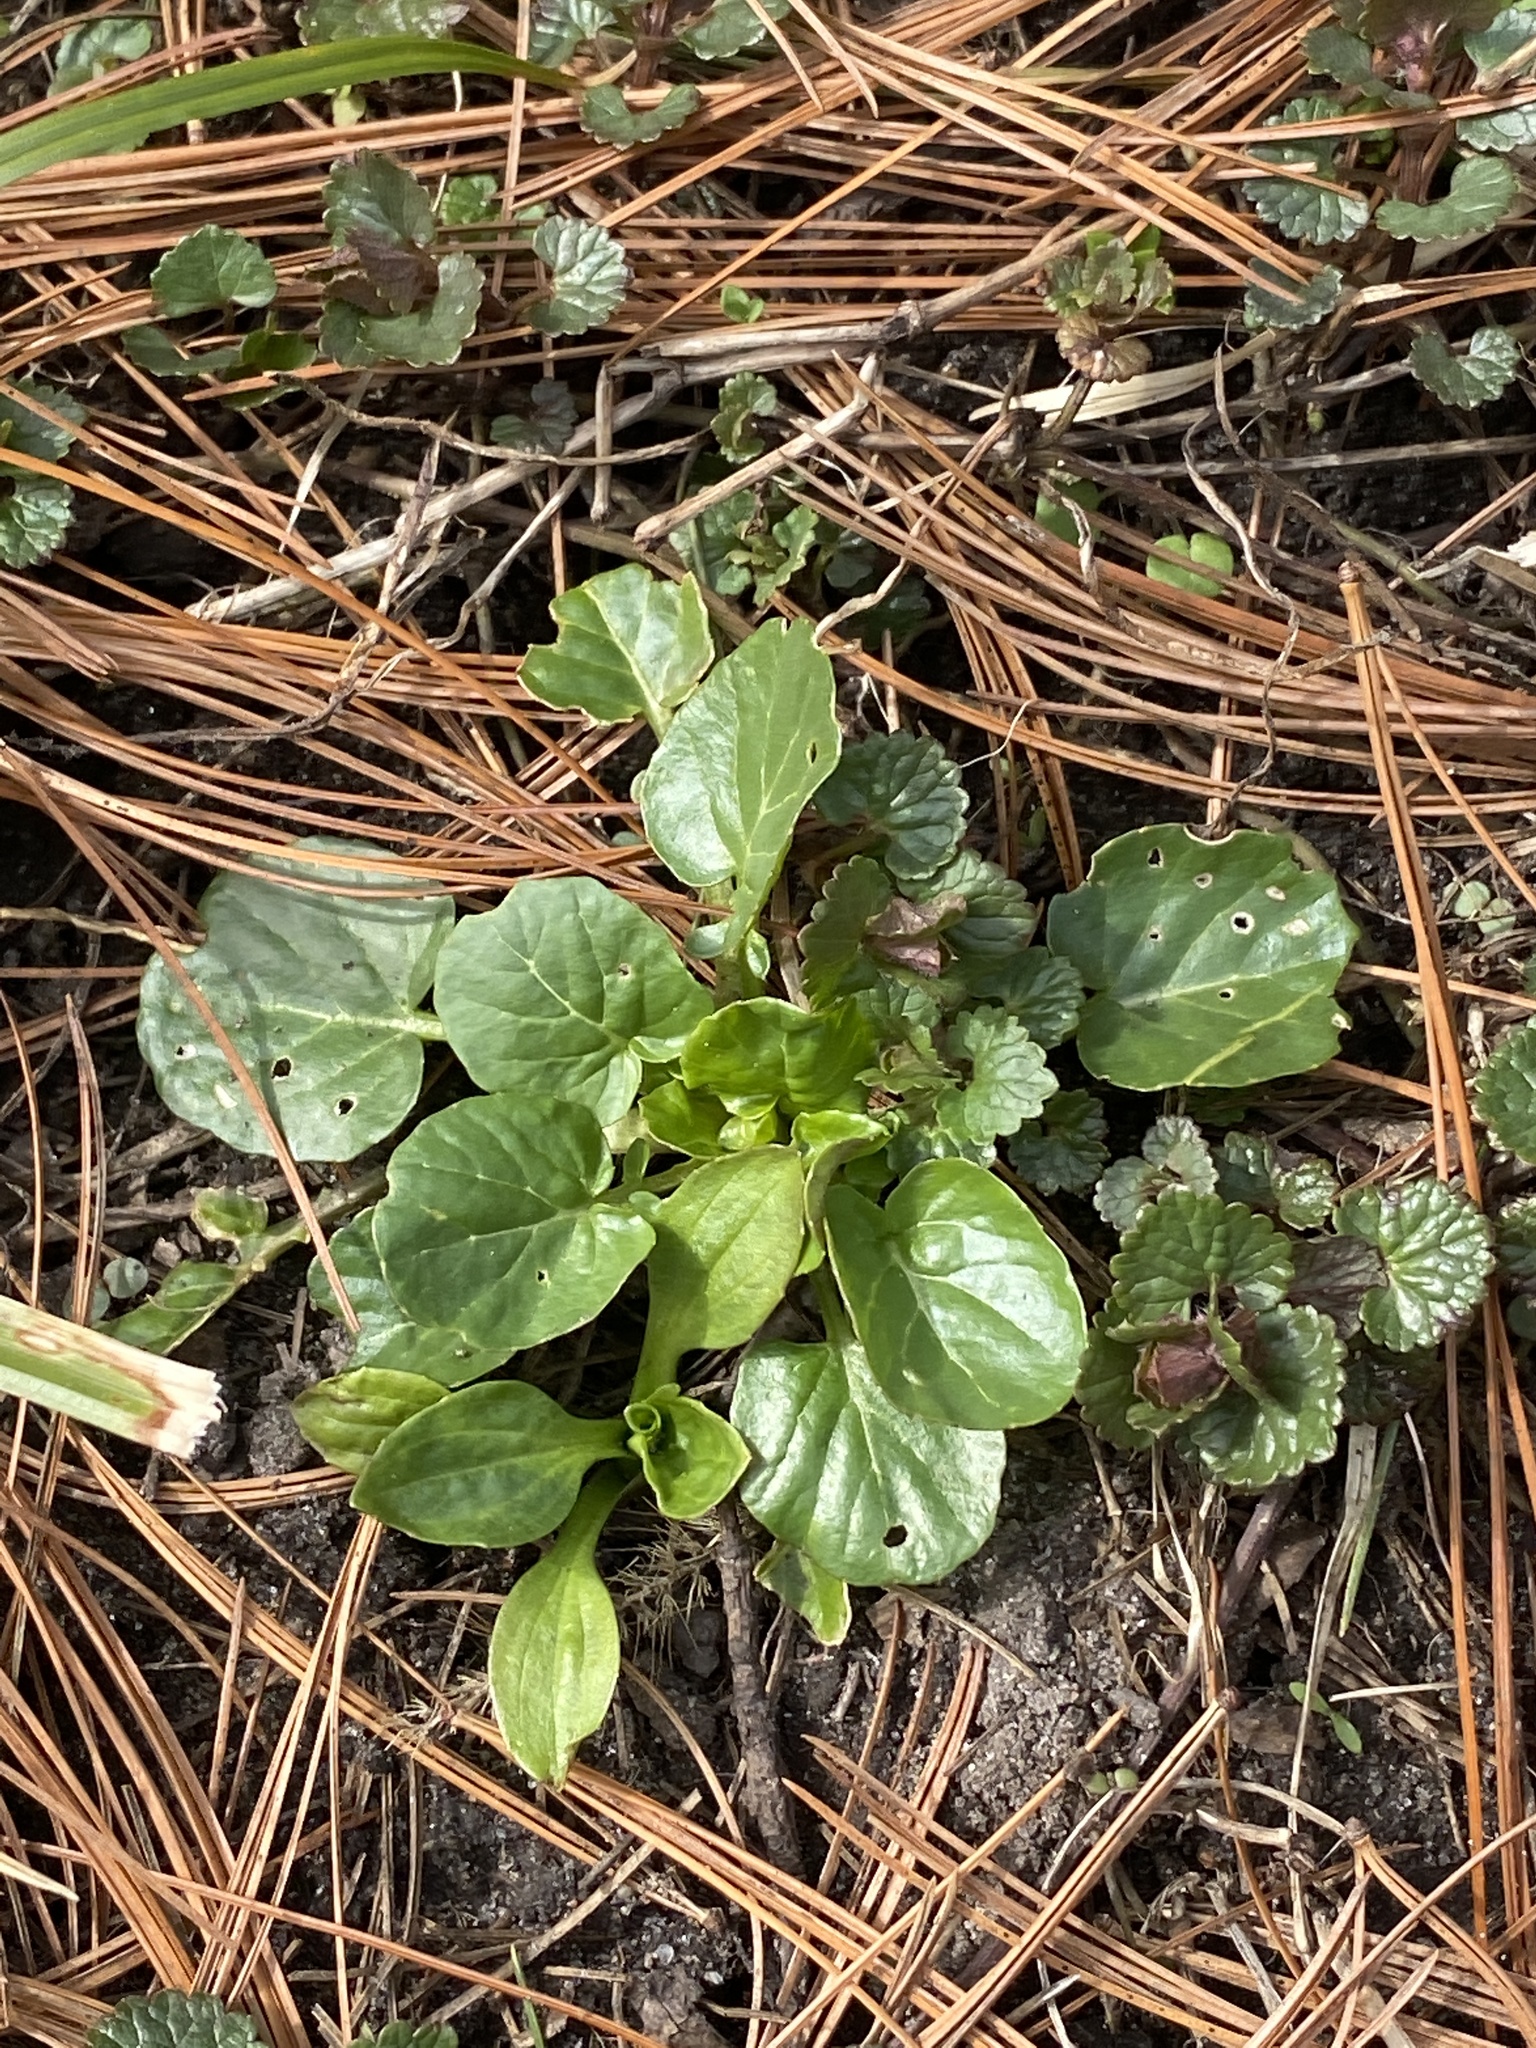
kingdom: Plantae
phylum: Tracheophyta
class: Magnoliopsida
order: Brassicales
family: Brassicaceae
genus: Barbarea
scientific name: Barbarea vulgaris
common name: Cressy-greens
